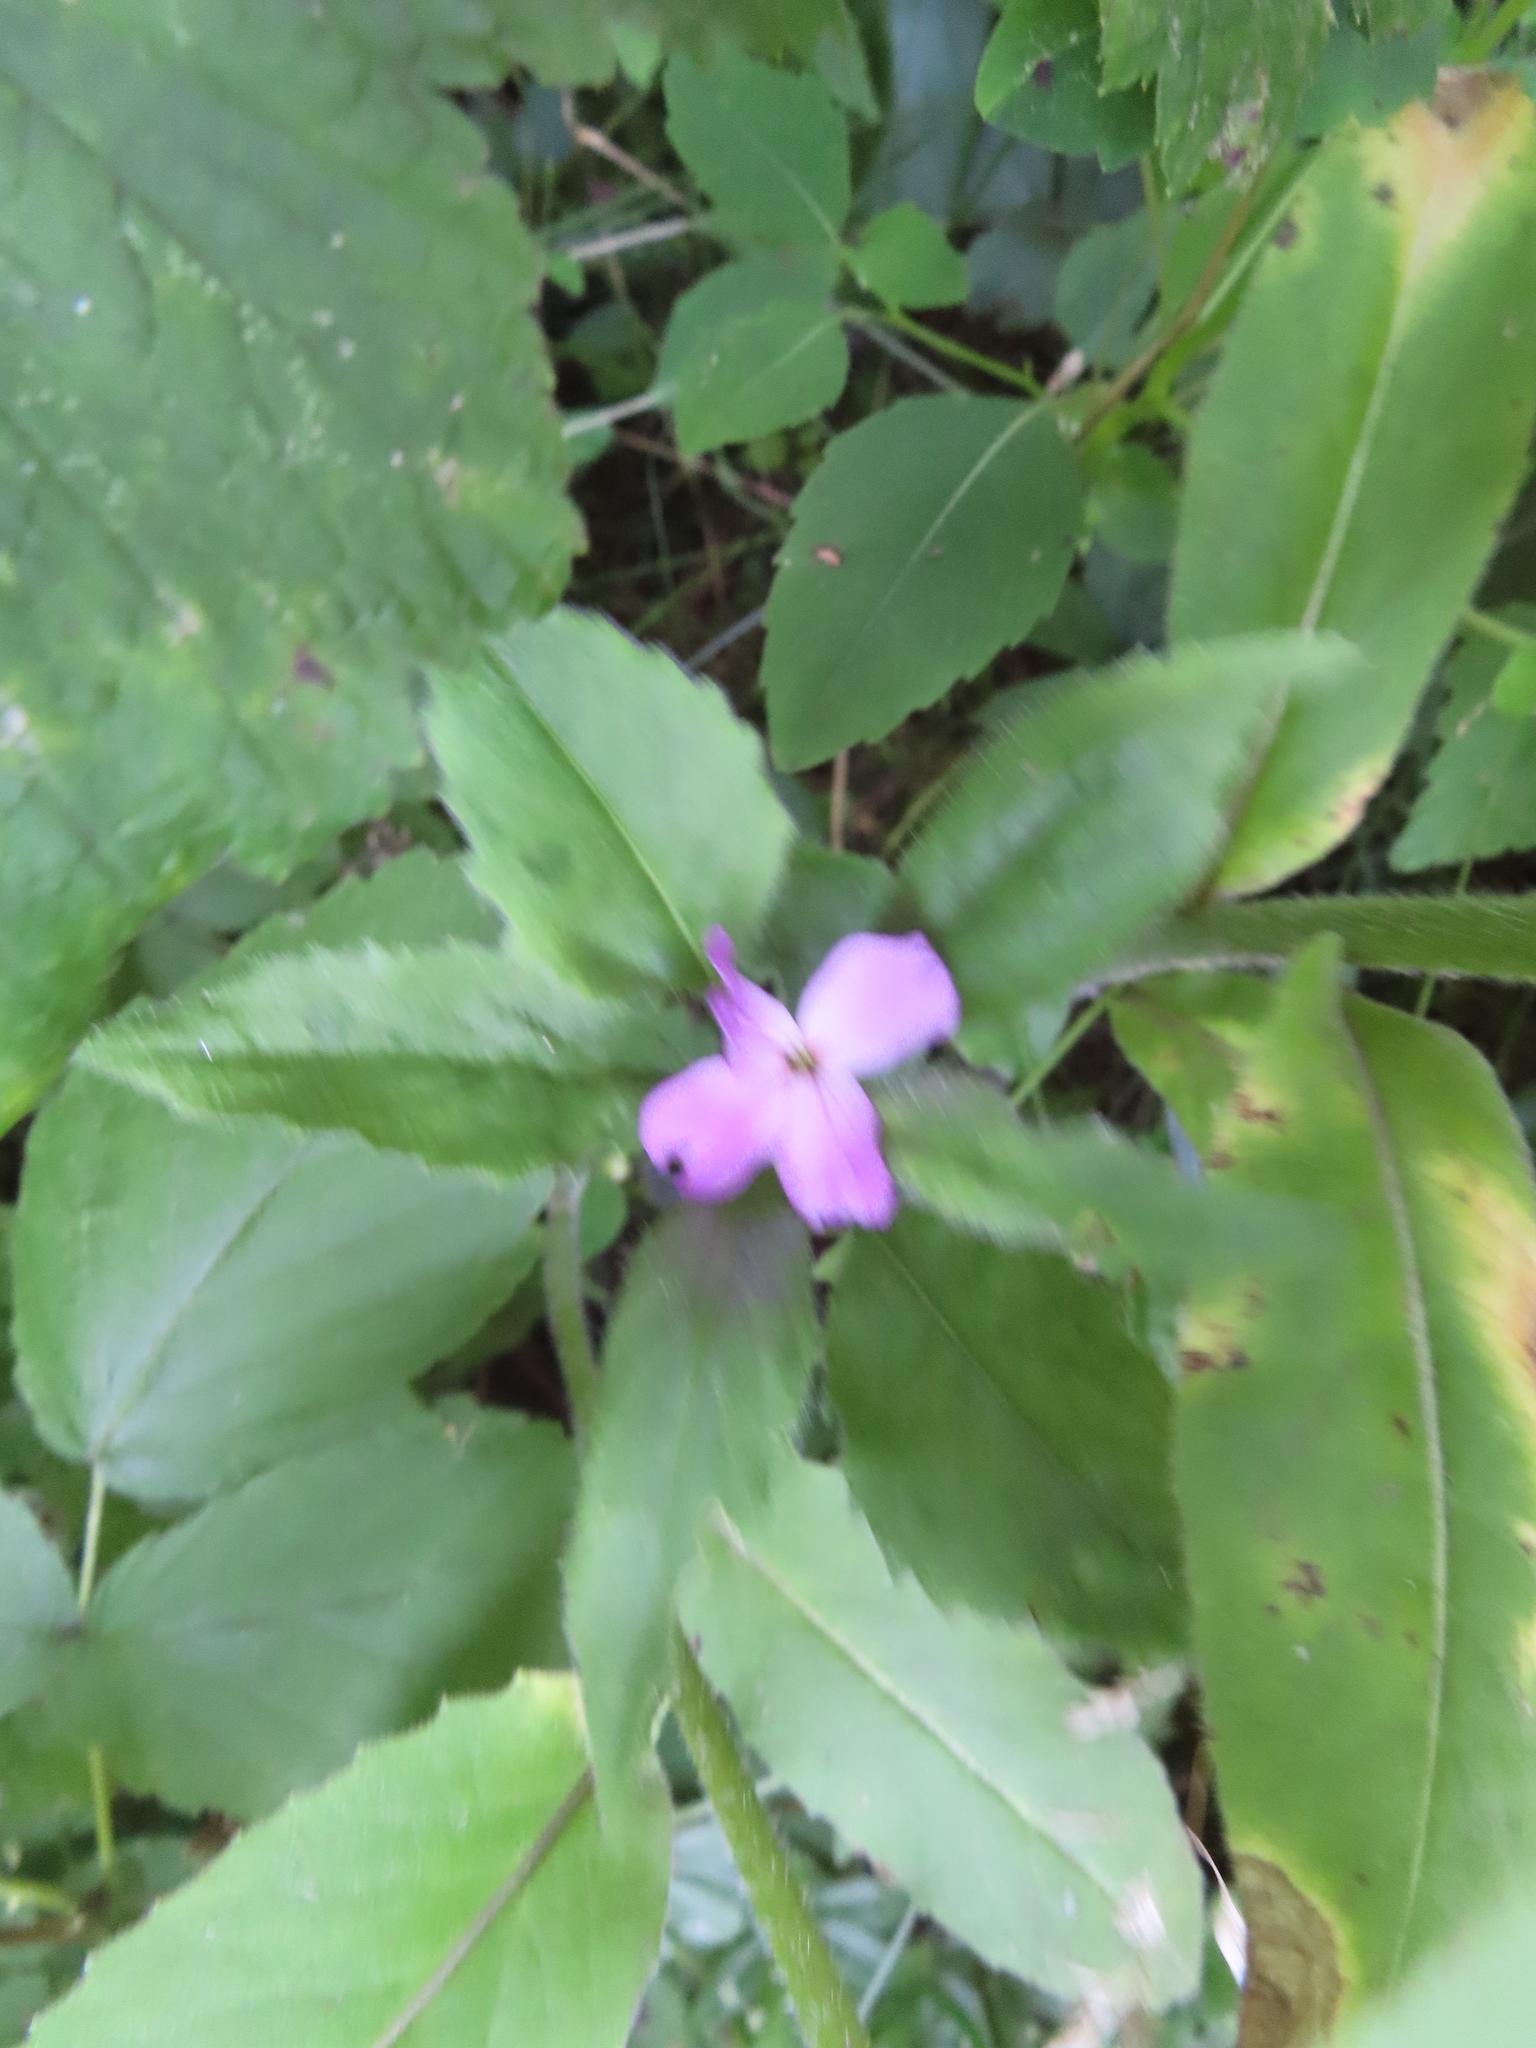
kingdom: Plantae
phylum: Tracheophyta
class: Magnoliopsida
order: Brassicales
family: Brassicaceae
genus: Hesperis
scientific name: Hesperis matronalis
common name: Dame's-violet
